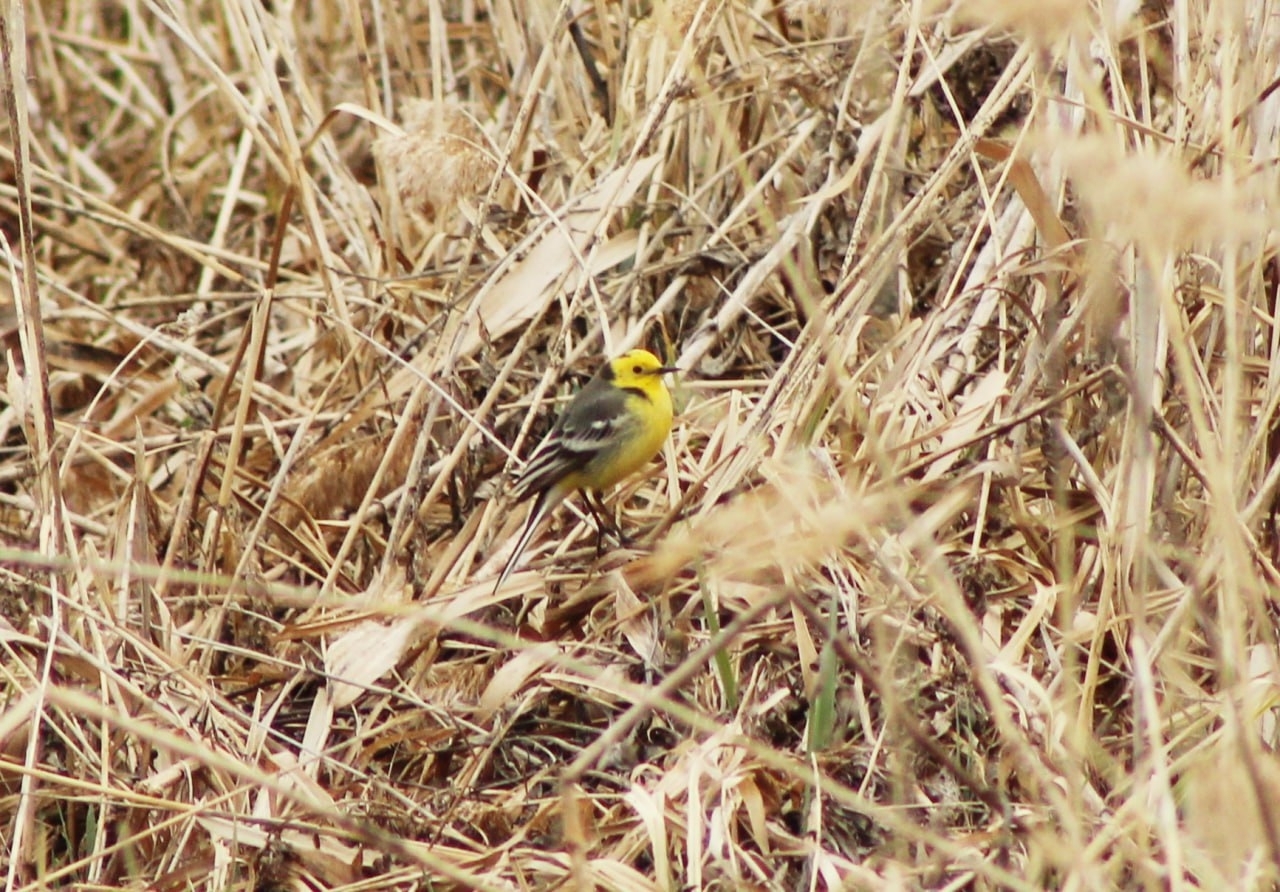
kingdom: Animalia
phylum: Chordata
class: Aves
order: Passeriformes
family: Motacillidae
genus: Motacilla
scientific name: Motacilla citreola
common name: Citrine wagtail
